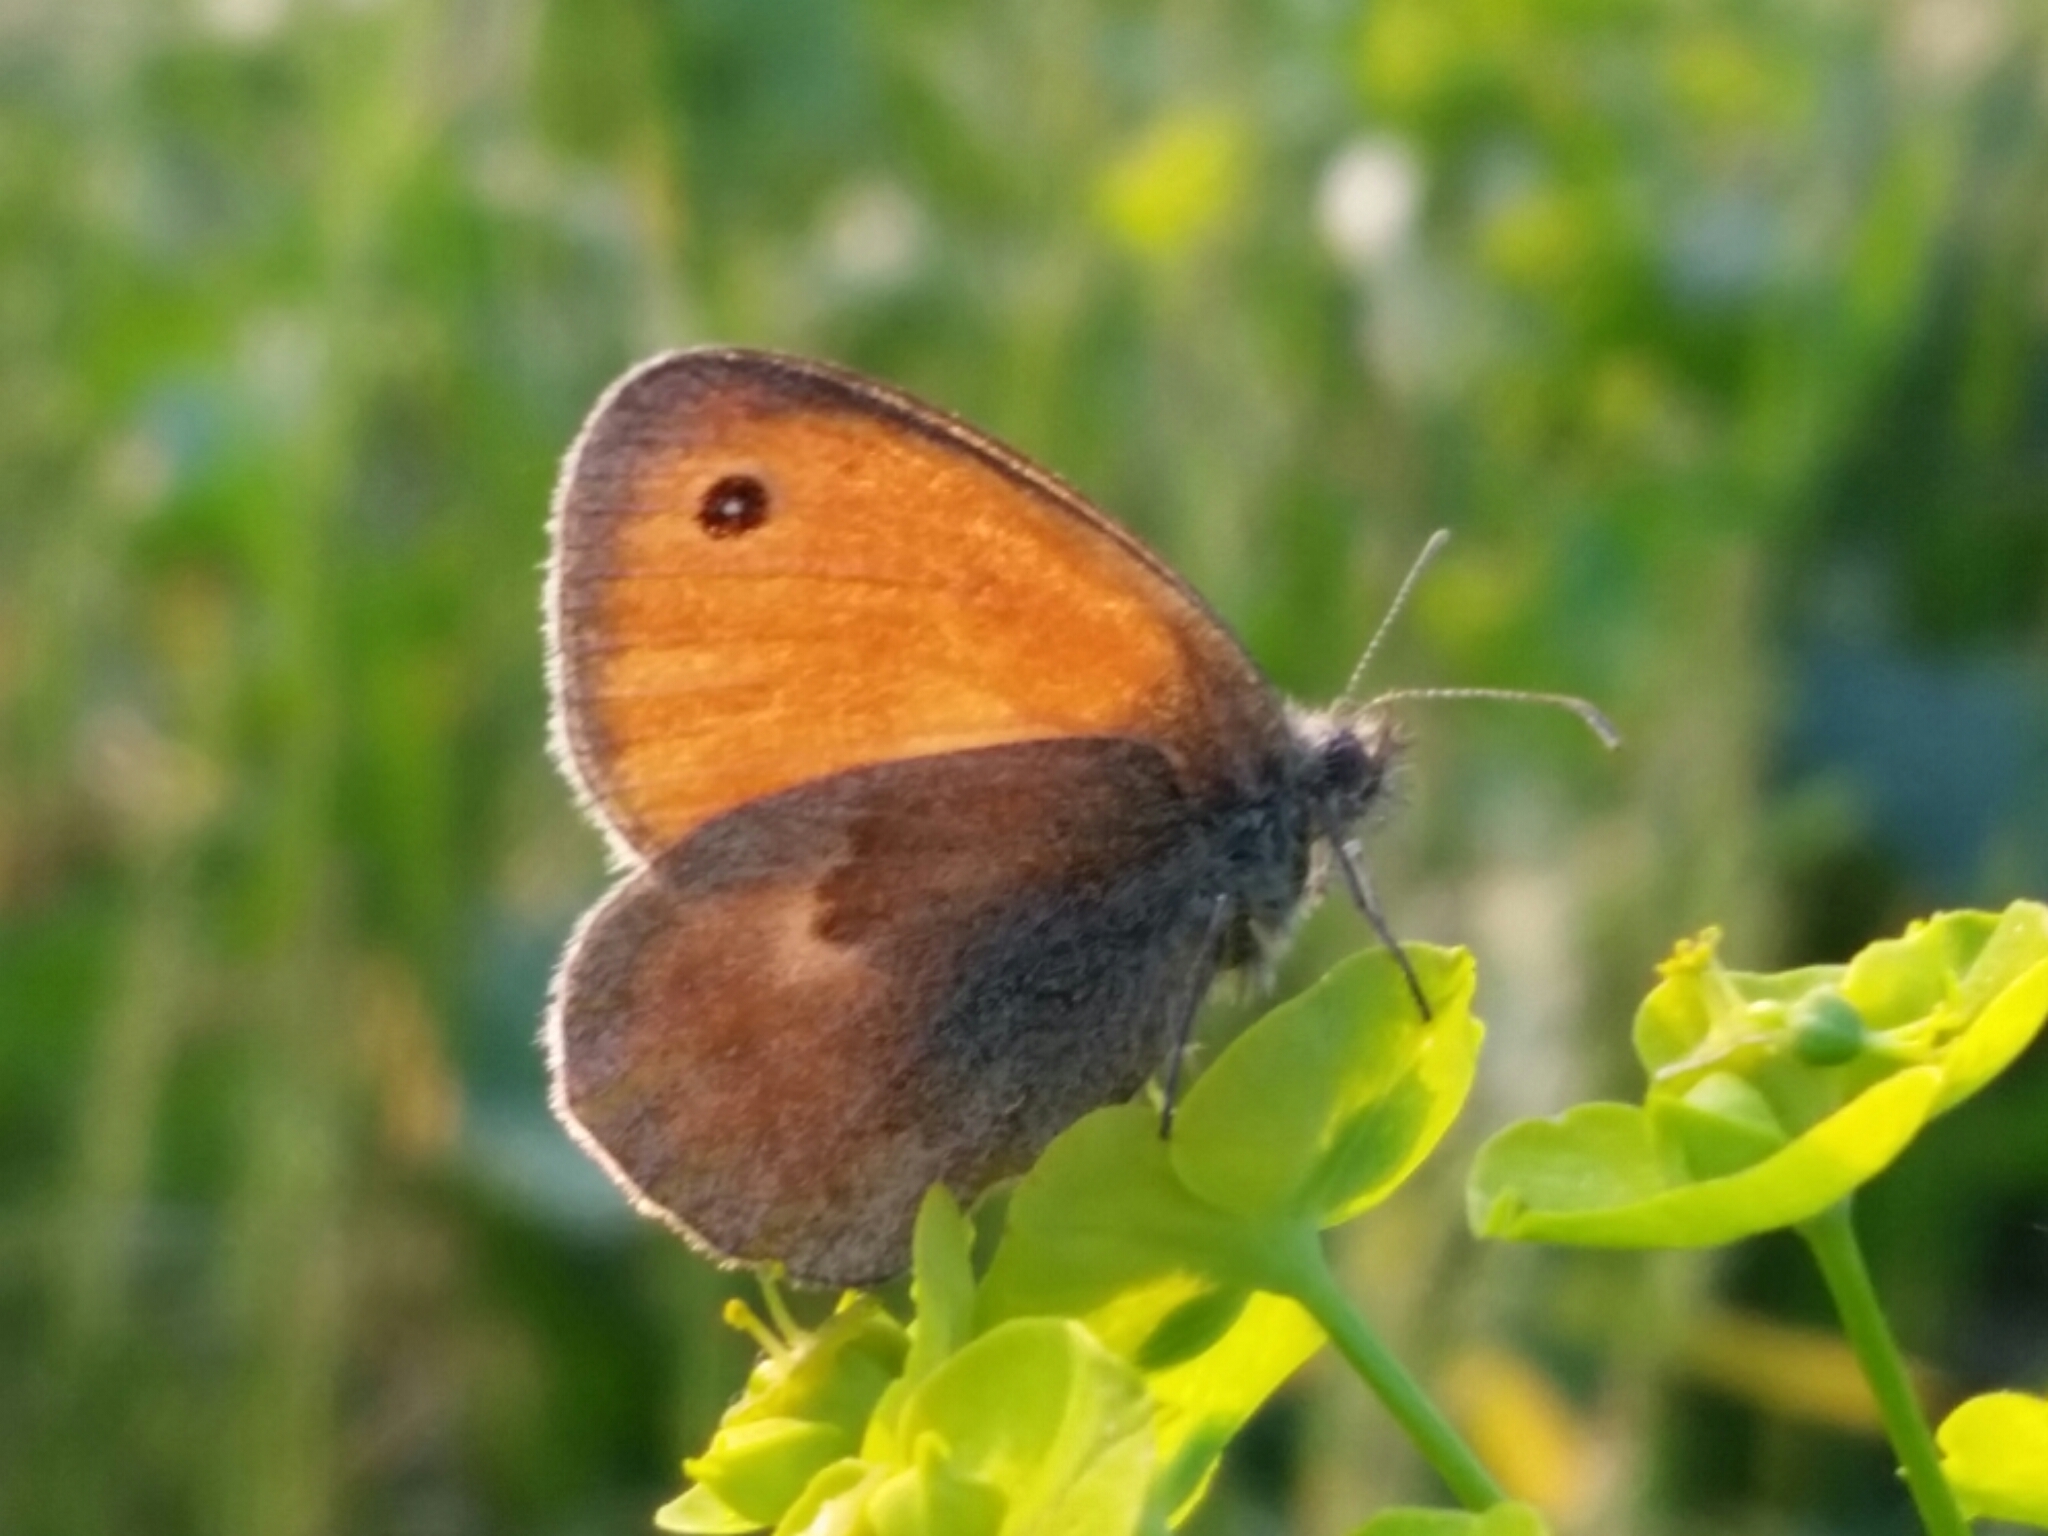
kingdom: Animalia
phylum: Arthropoda
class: Insecta
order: Lepidoptera
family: Nymphalidae
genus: Coenonympha
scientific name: Coenonympha pamphilus
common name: Small heath
